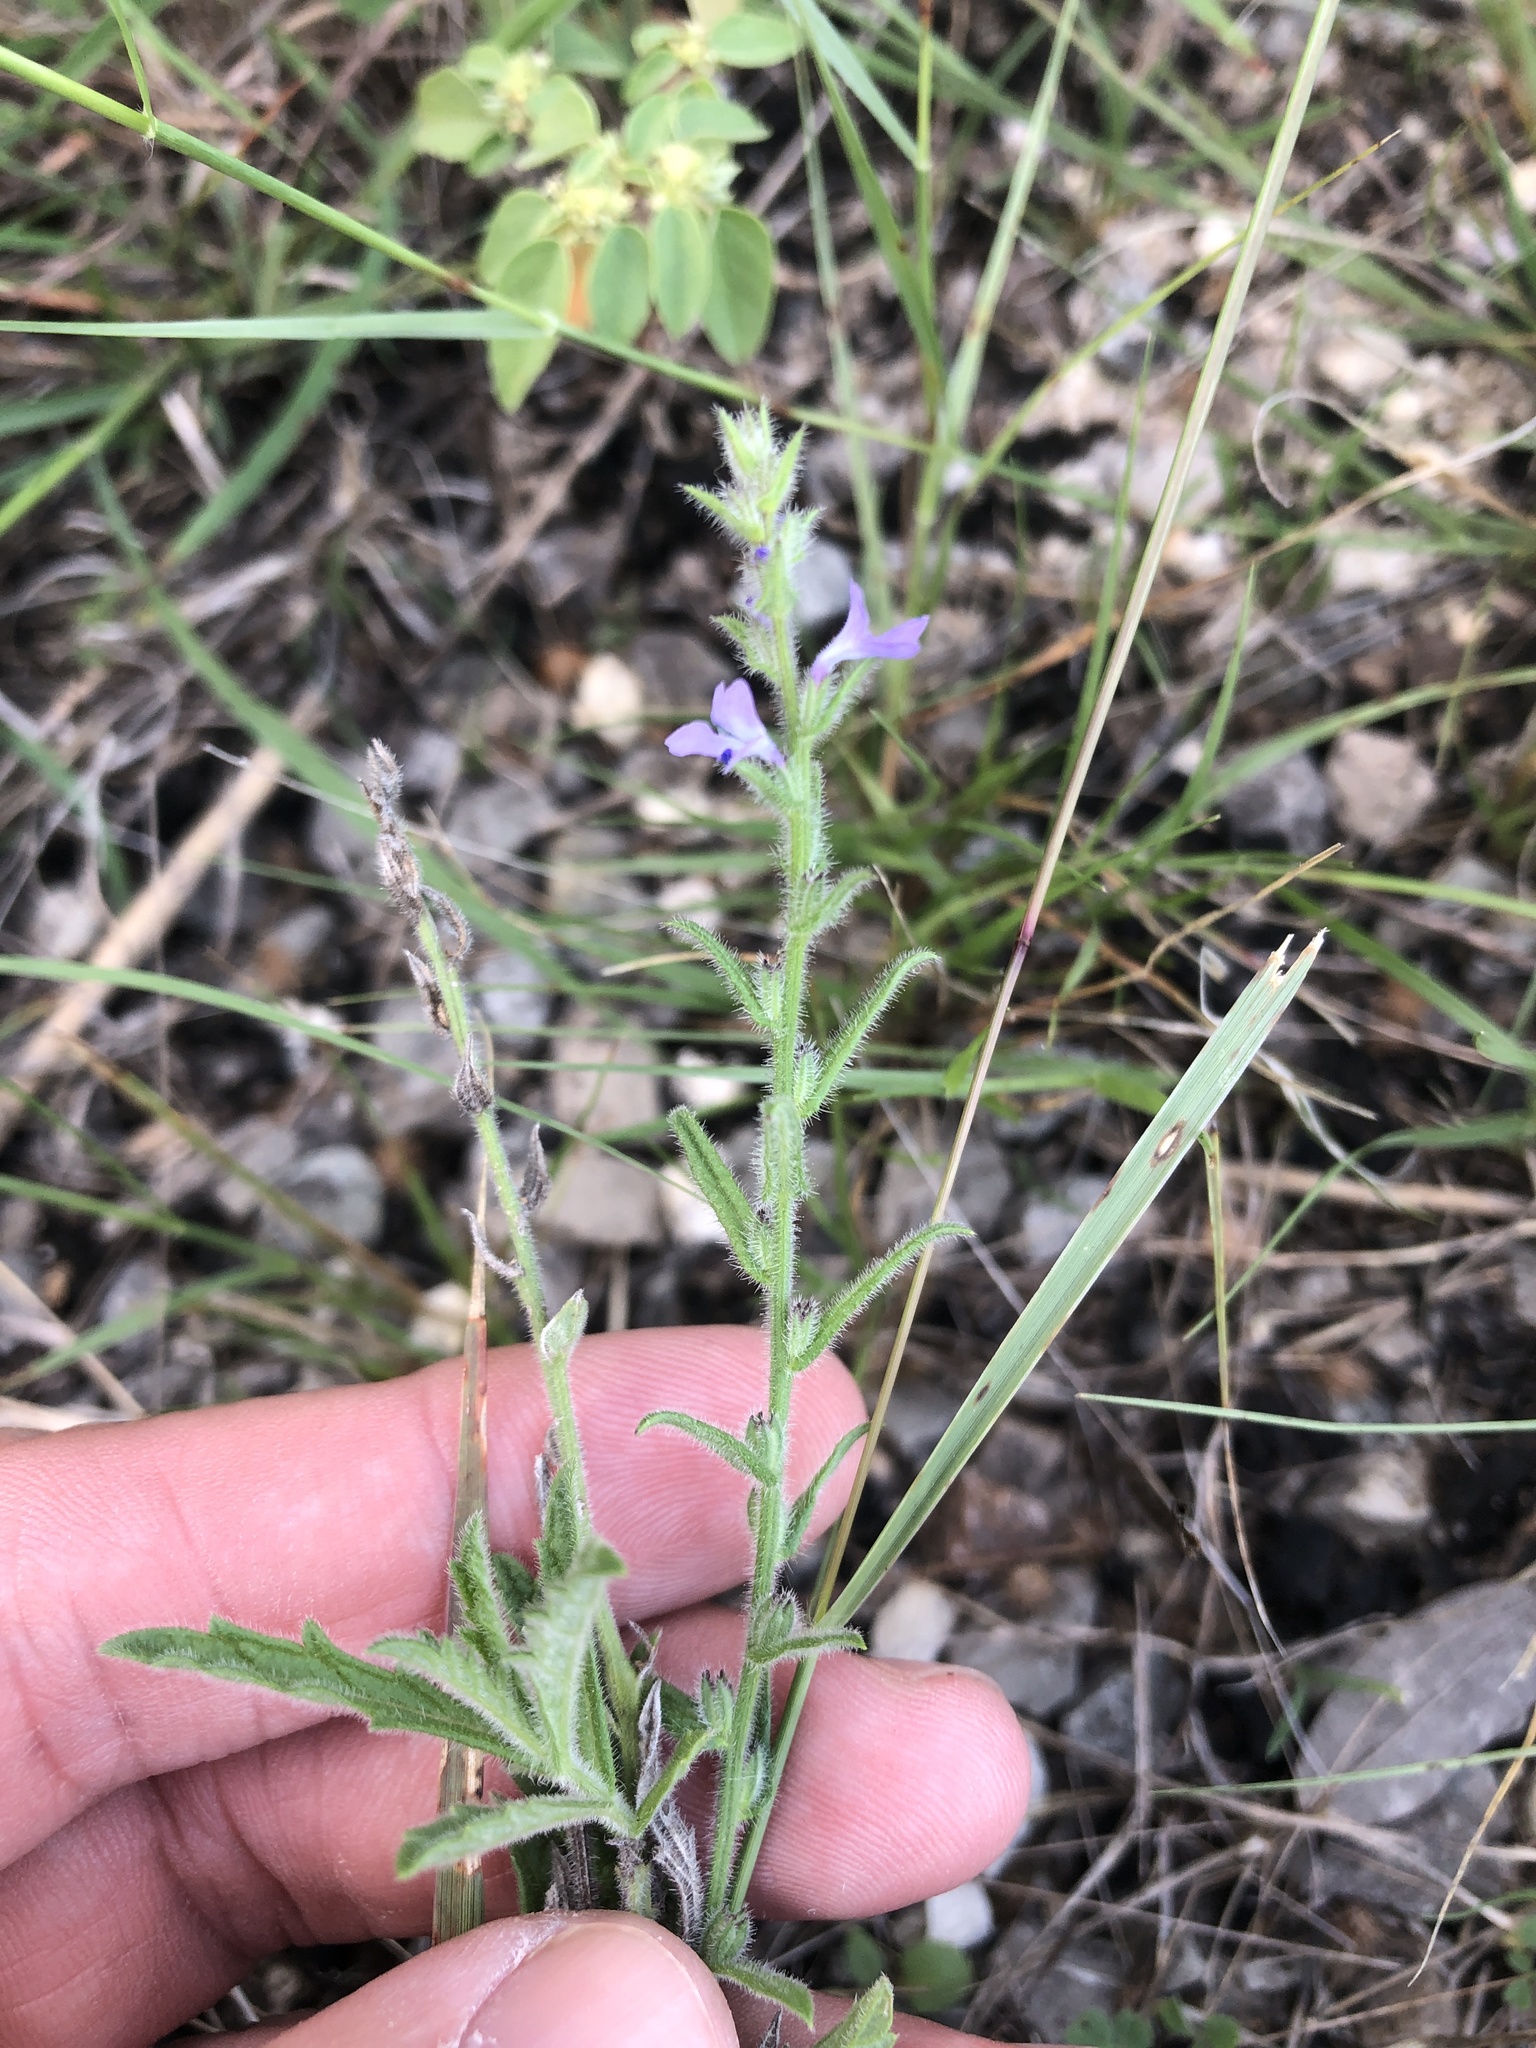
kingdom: Plantae
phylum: Tracheophyta
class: Magnoliopsida
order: Lamiales
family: Verbenaceae
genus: Verbena
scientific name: Verbena canescens
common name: Gray vervain
